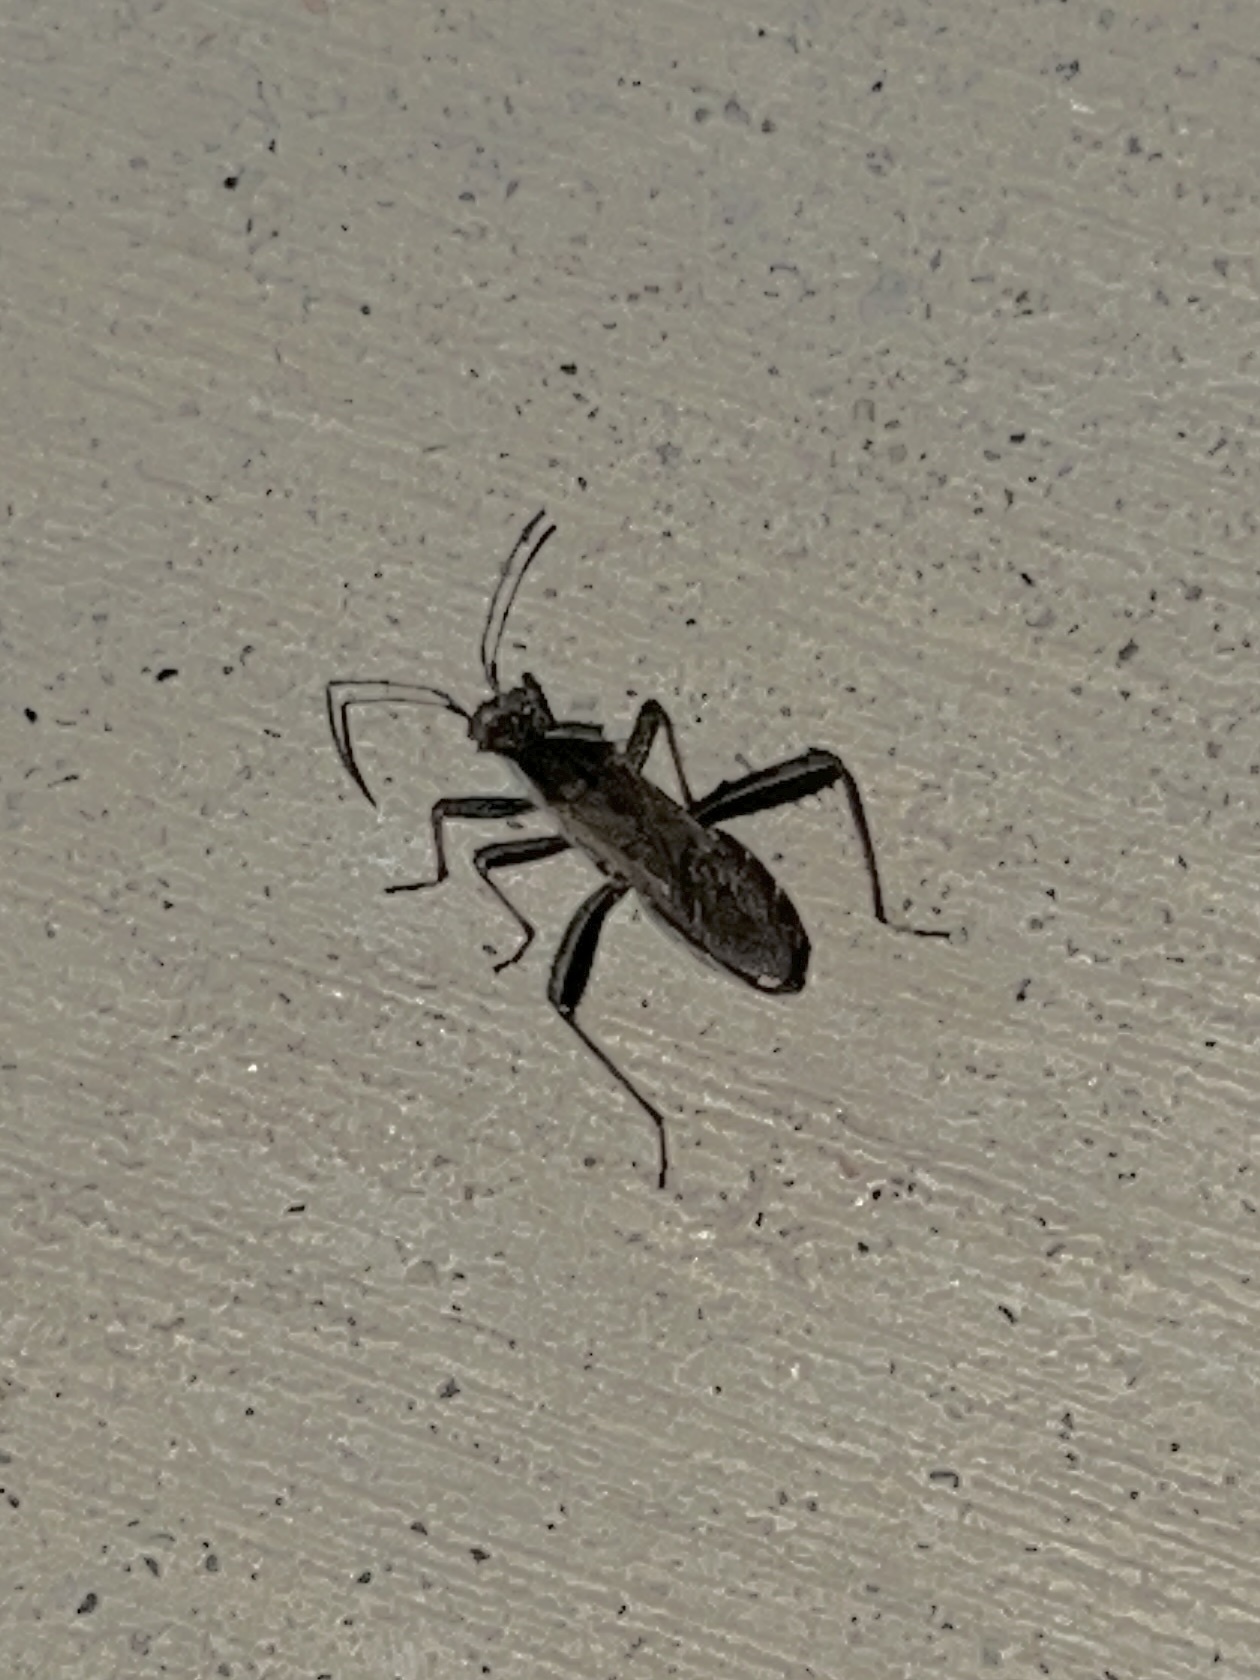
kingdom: Animalia
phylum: Arthropoda
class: Insecta
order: Hemiptera
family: Alydidae
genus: Alydus
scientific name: Alydus pilosulus
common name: Broad-headed bug
